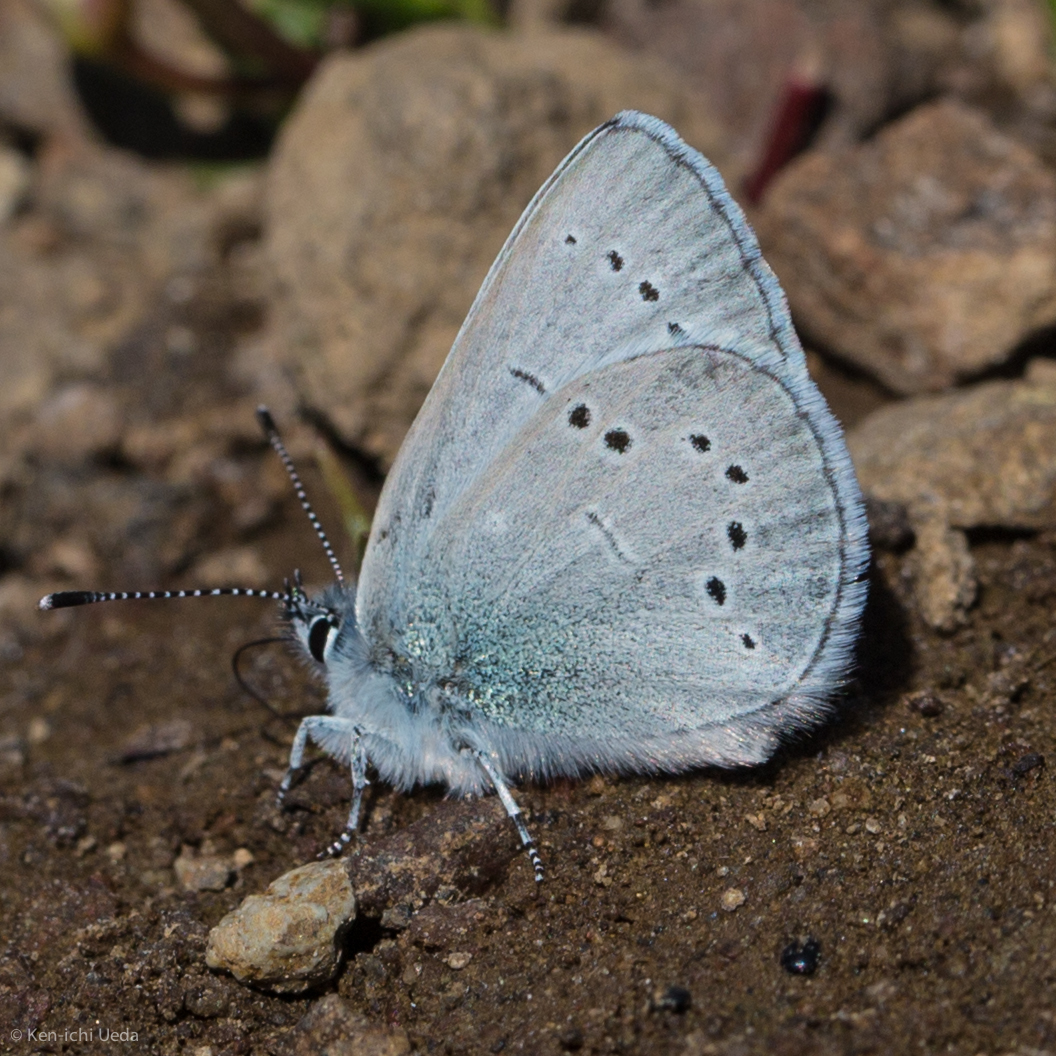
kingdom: Animalia
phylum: Arthropoda
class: Insecta
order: Lepidoptera
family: Lycaenidae
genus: Glaucopsyche
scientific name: Glaucopsyche lygdamus
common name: Silvery blue
